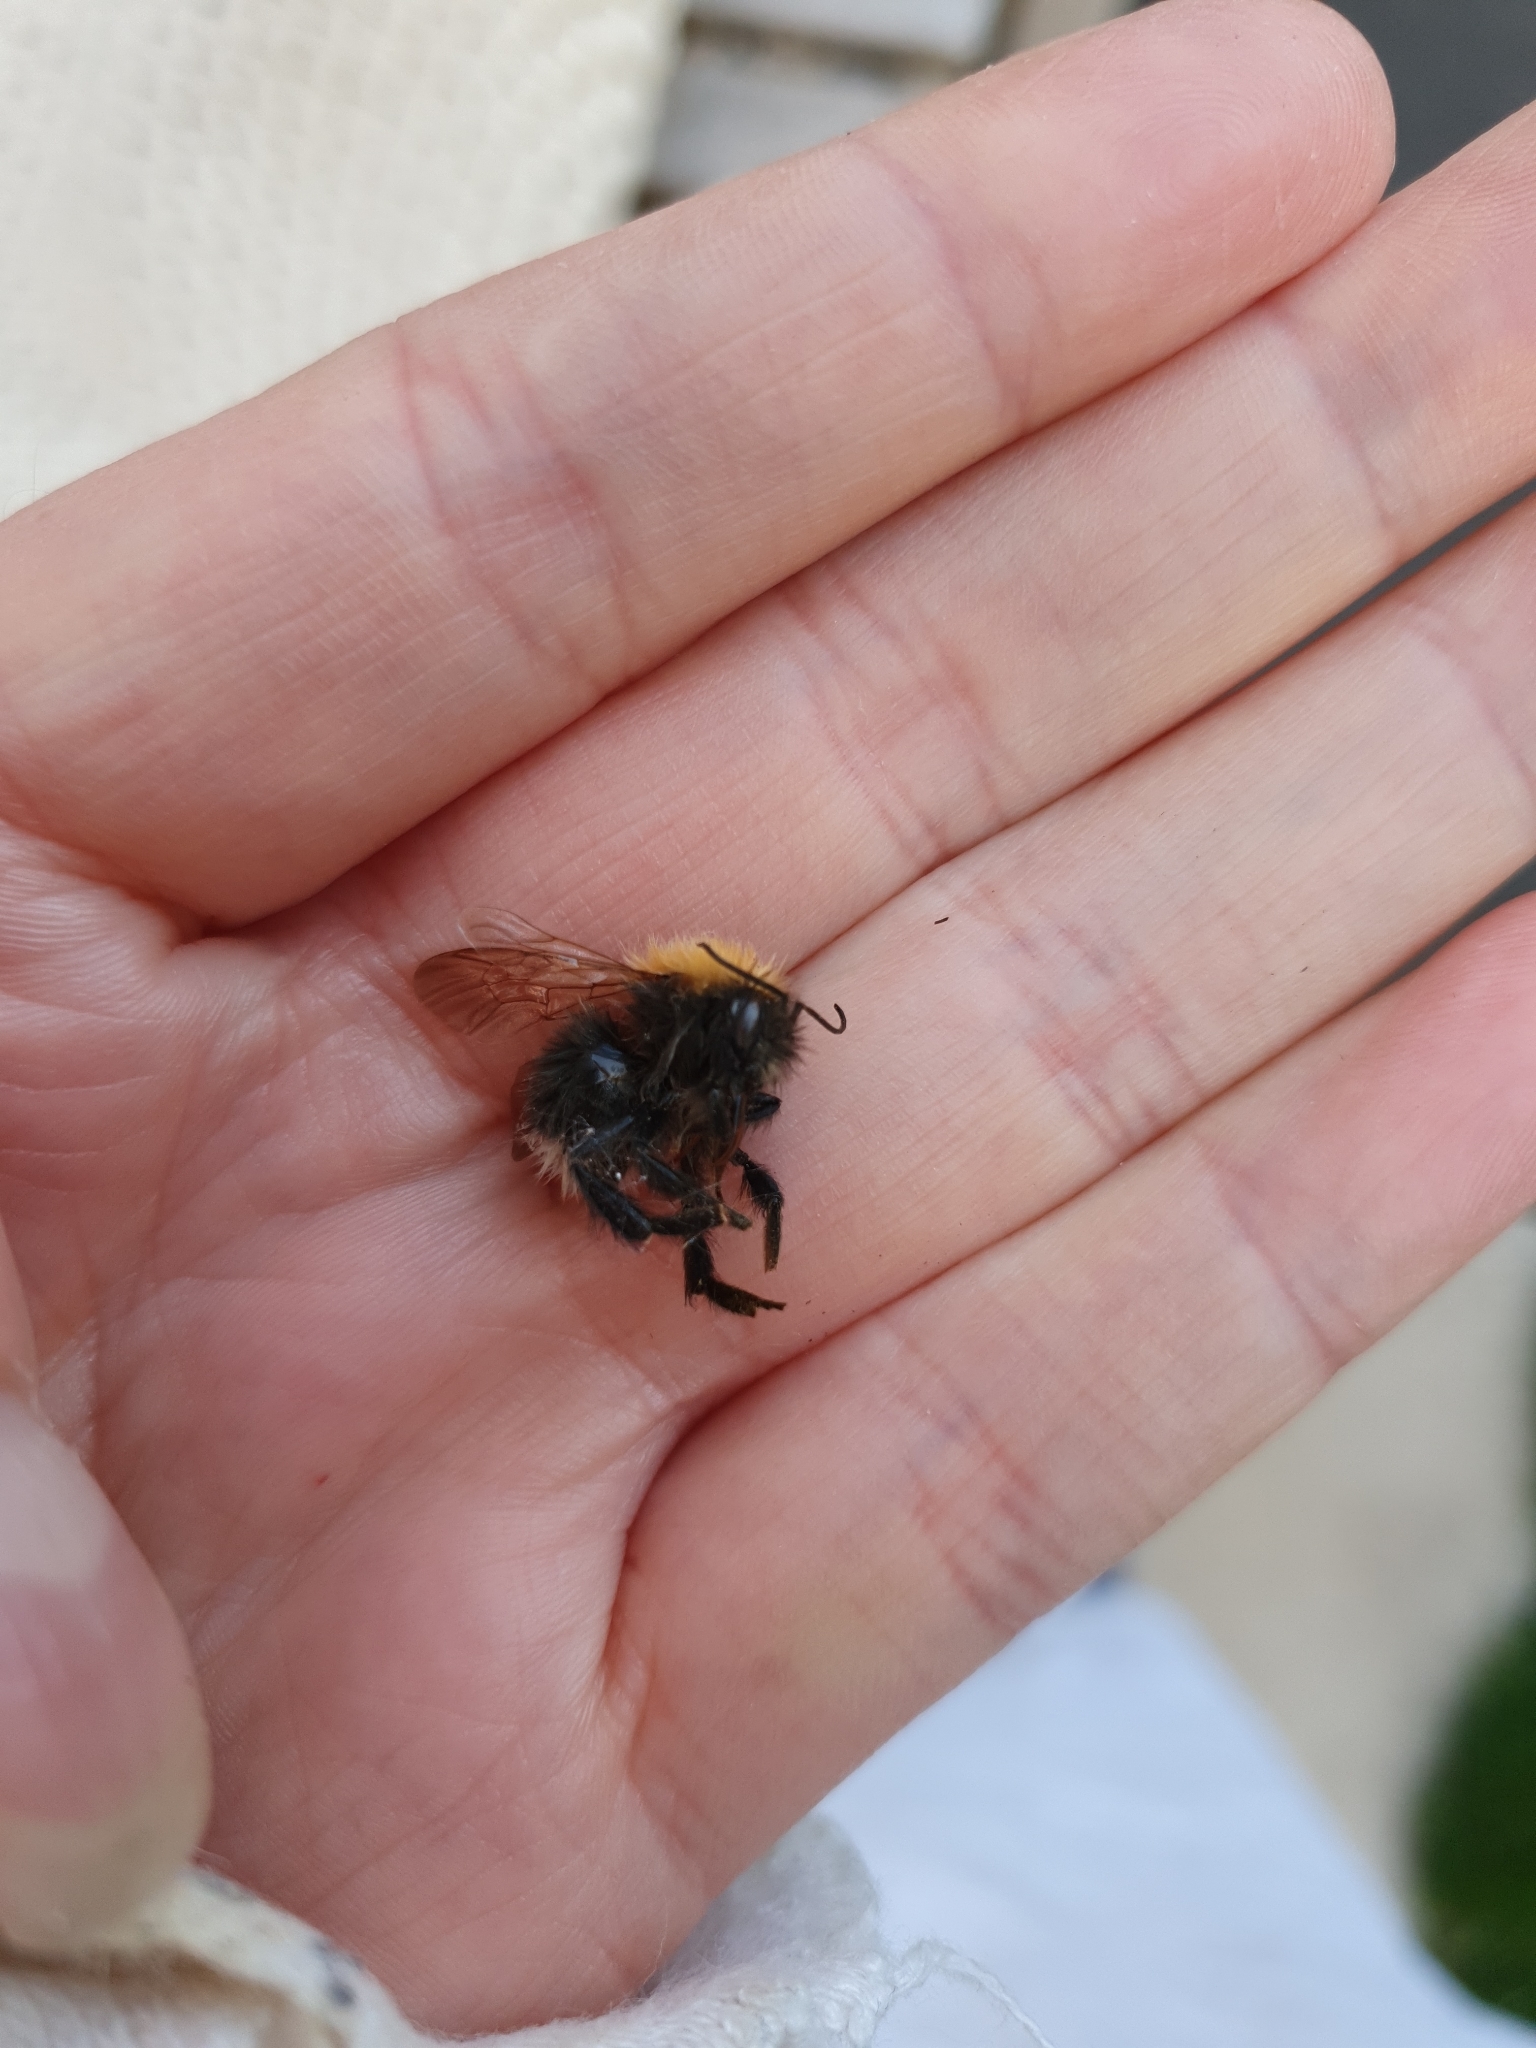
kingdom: Animalia
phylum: Arthropoda
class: Insecta
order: Hymenoptera
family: Apidae
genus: Bombus
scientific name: Bombus hypnorum
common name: New garden bumblebee
